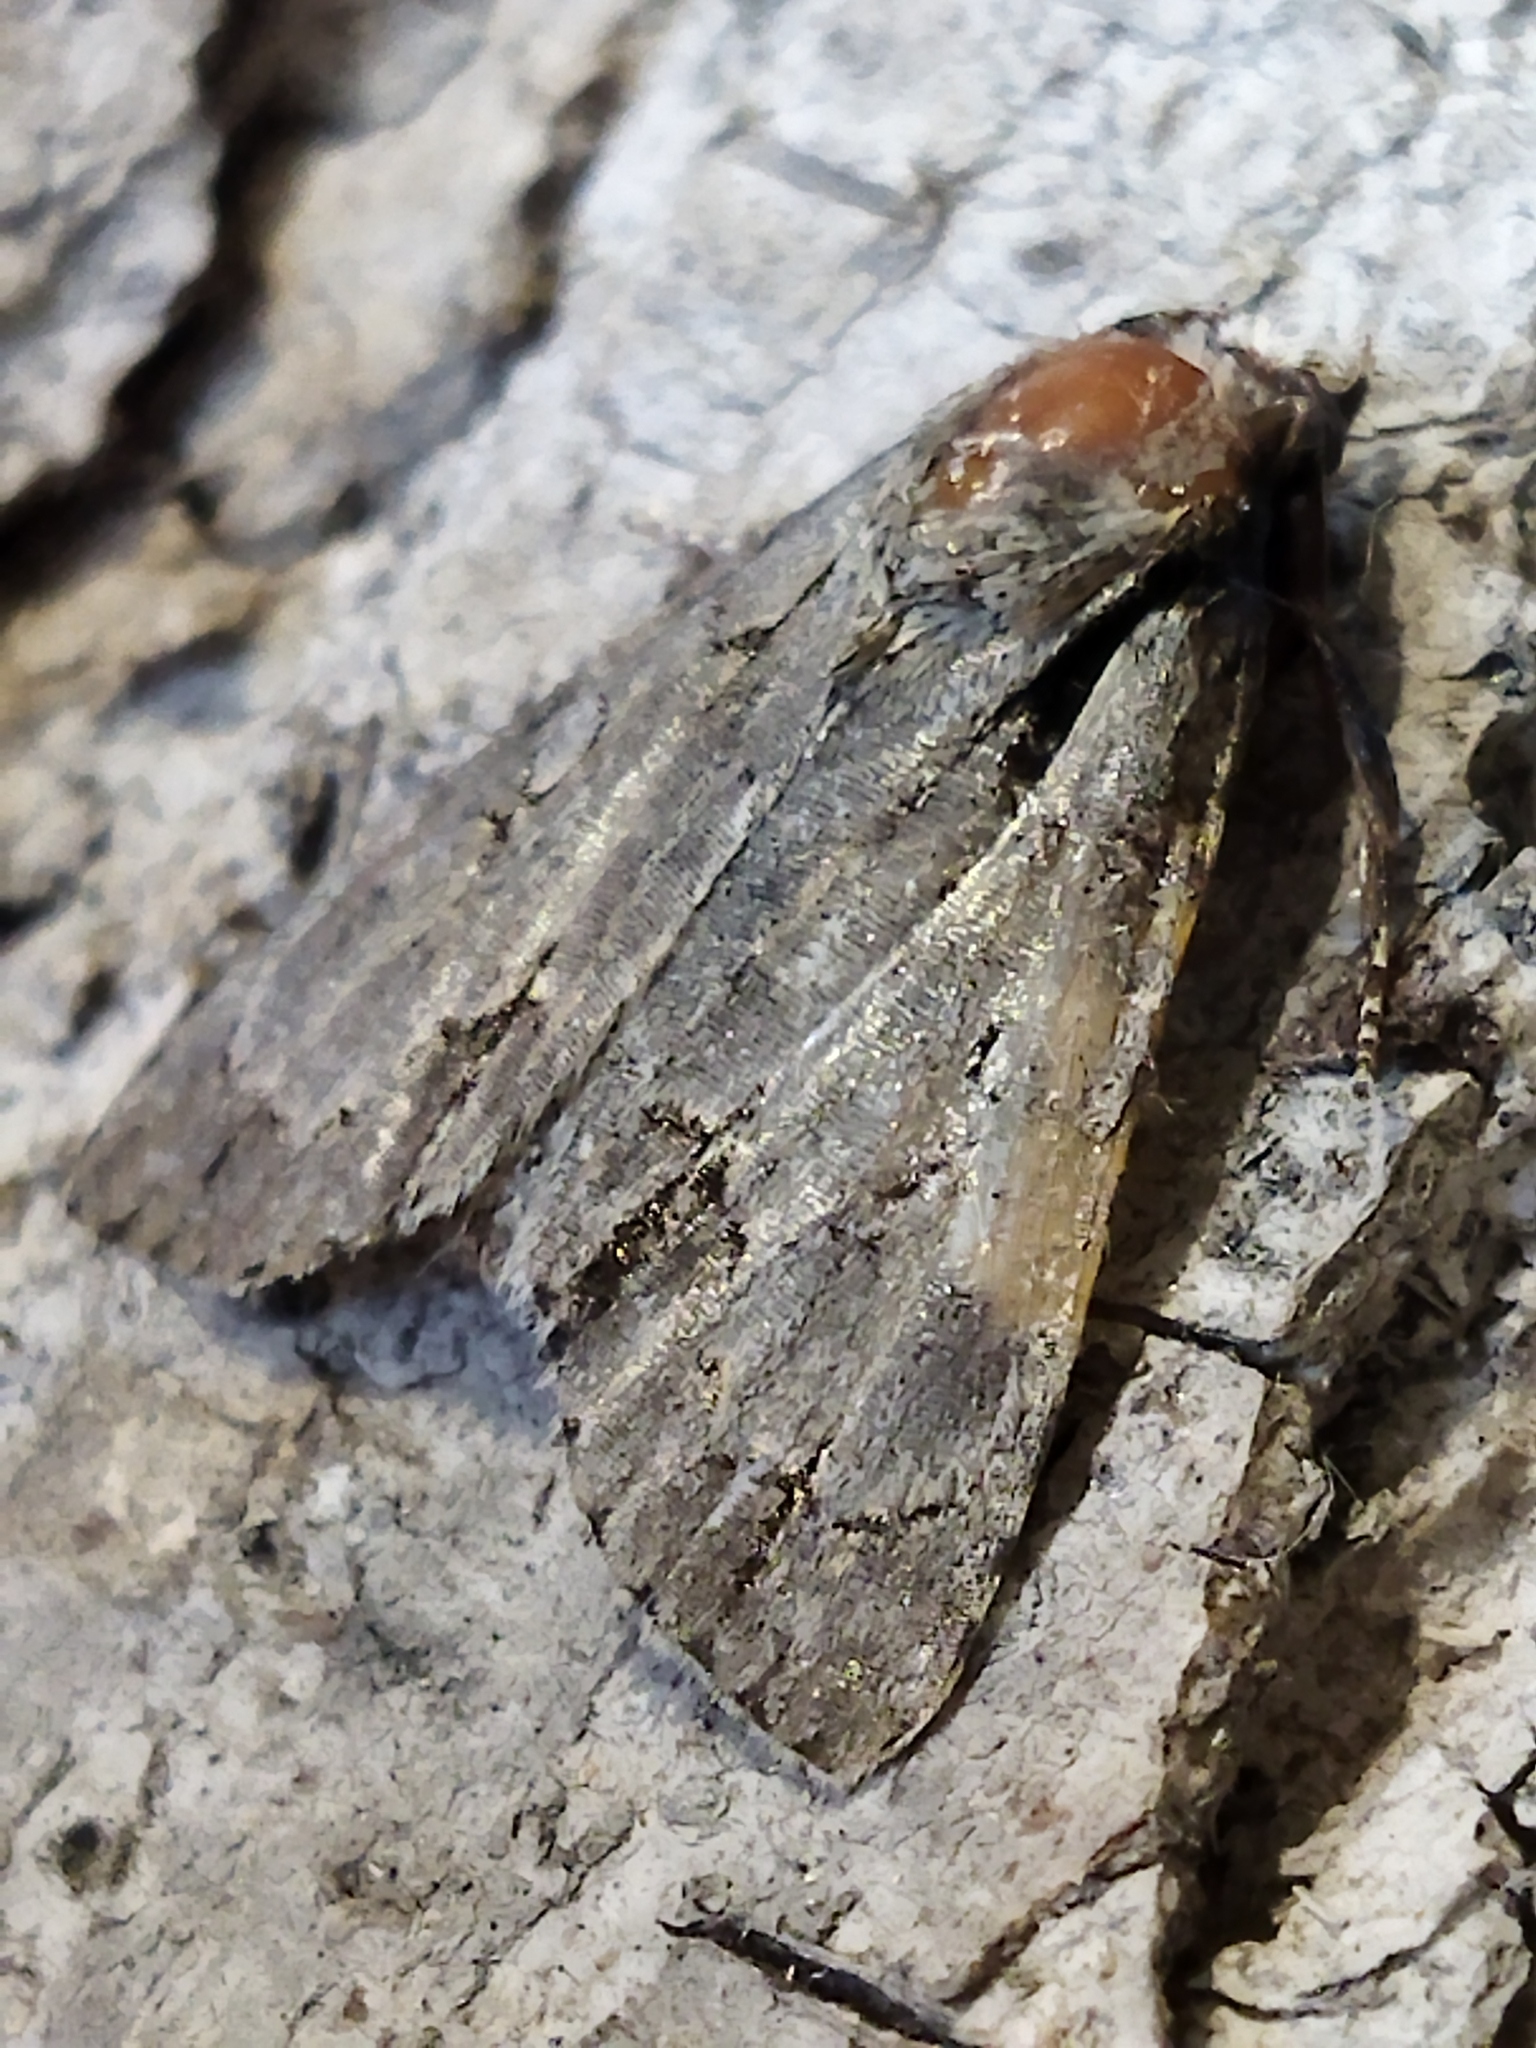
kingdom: Animalia
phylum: Arthropoda
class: Insecta
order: Lepidoptera
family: Noctuidae
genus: Acronicta
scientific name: Acronicta
